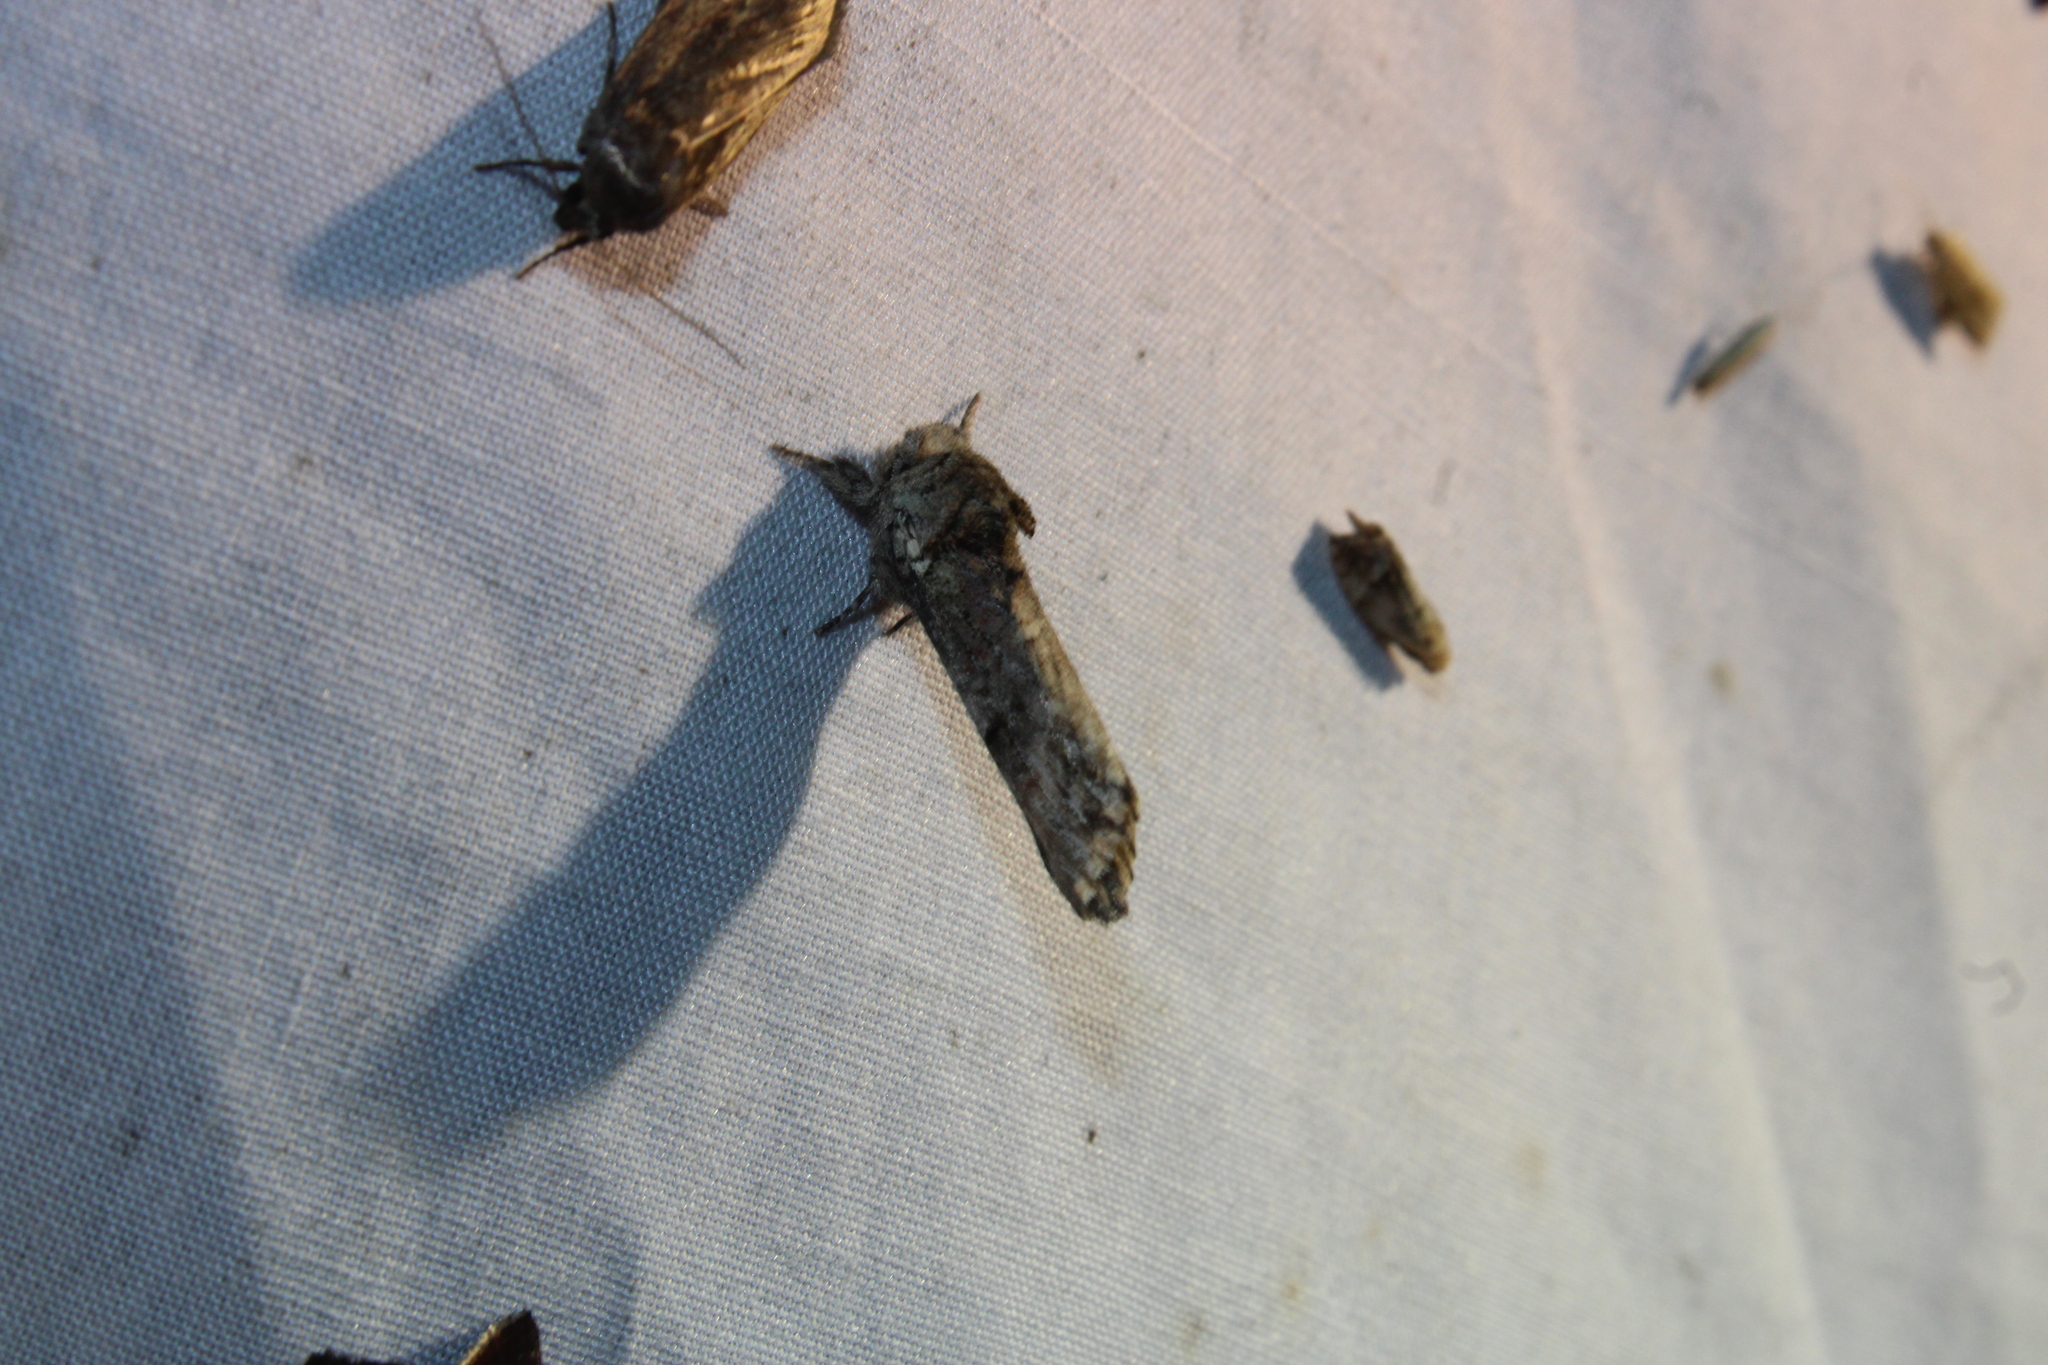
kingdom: Animalia
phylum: Arthropoda
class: Insecta
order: Lepidoptera
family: Notodontidae
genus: Schizura
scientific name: Schizura
